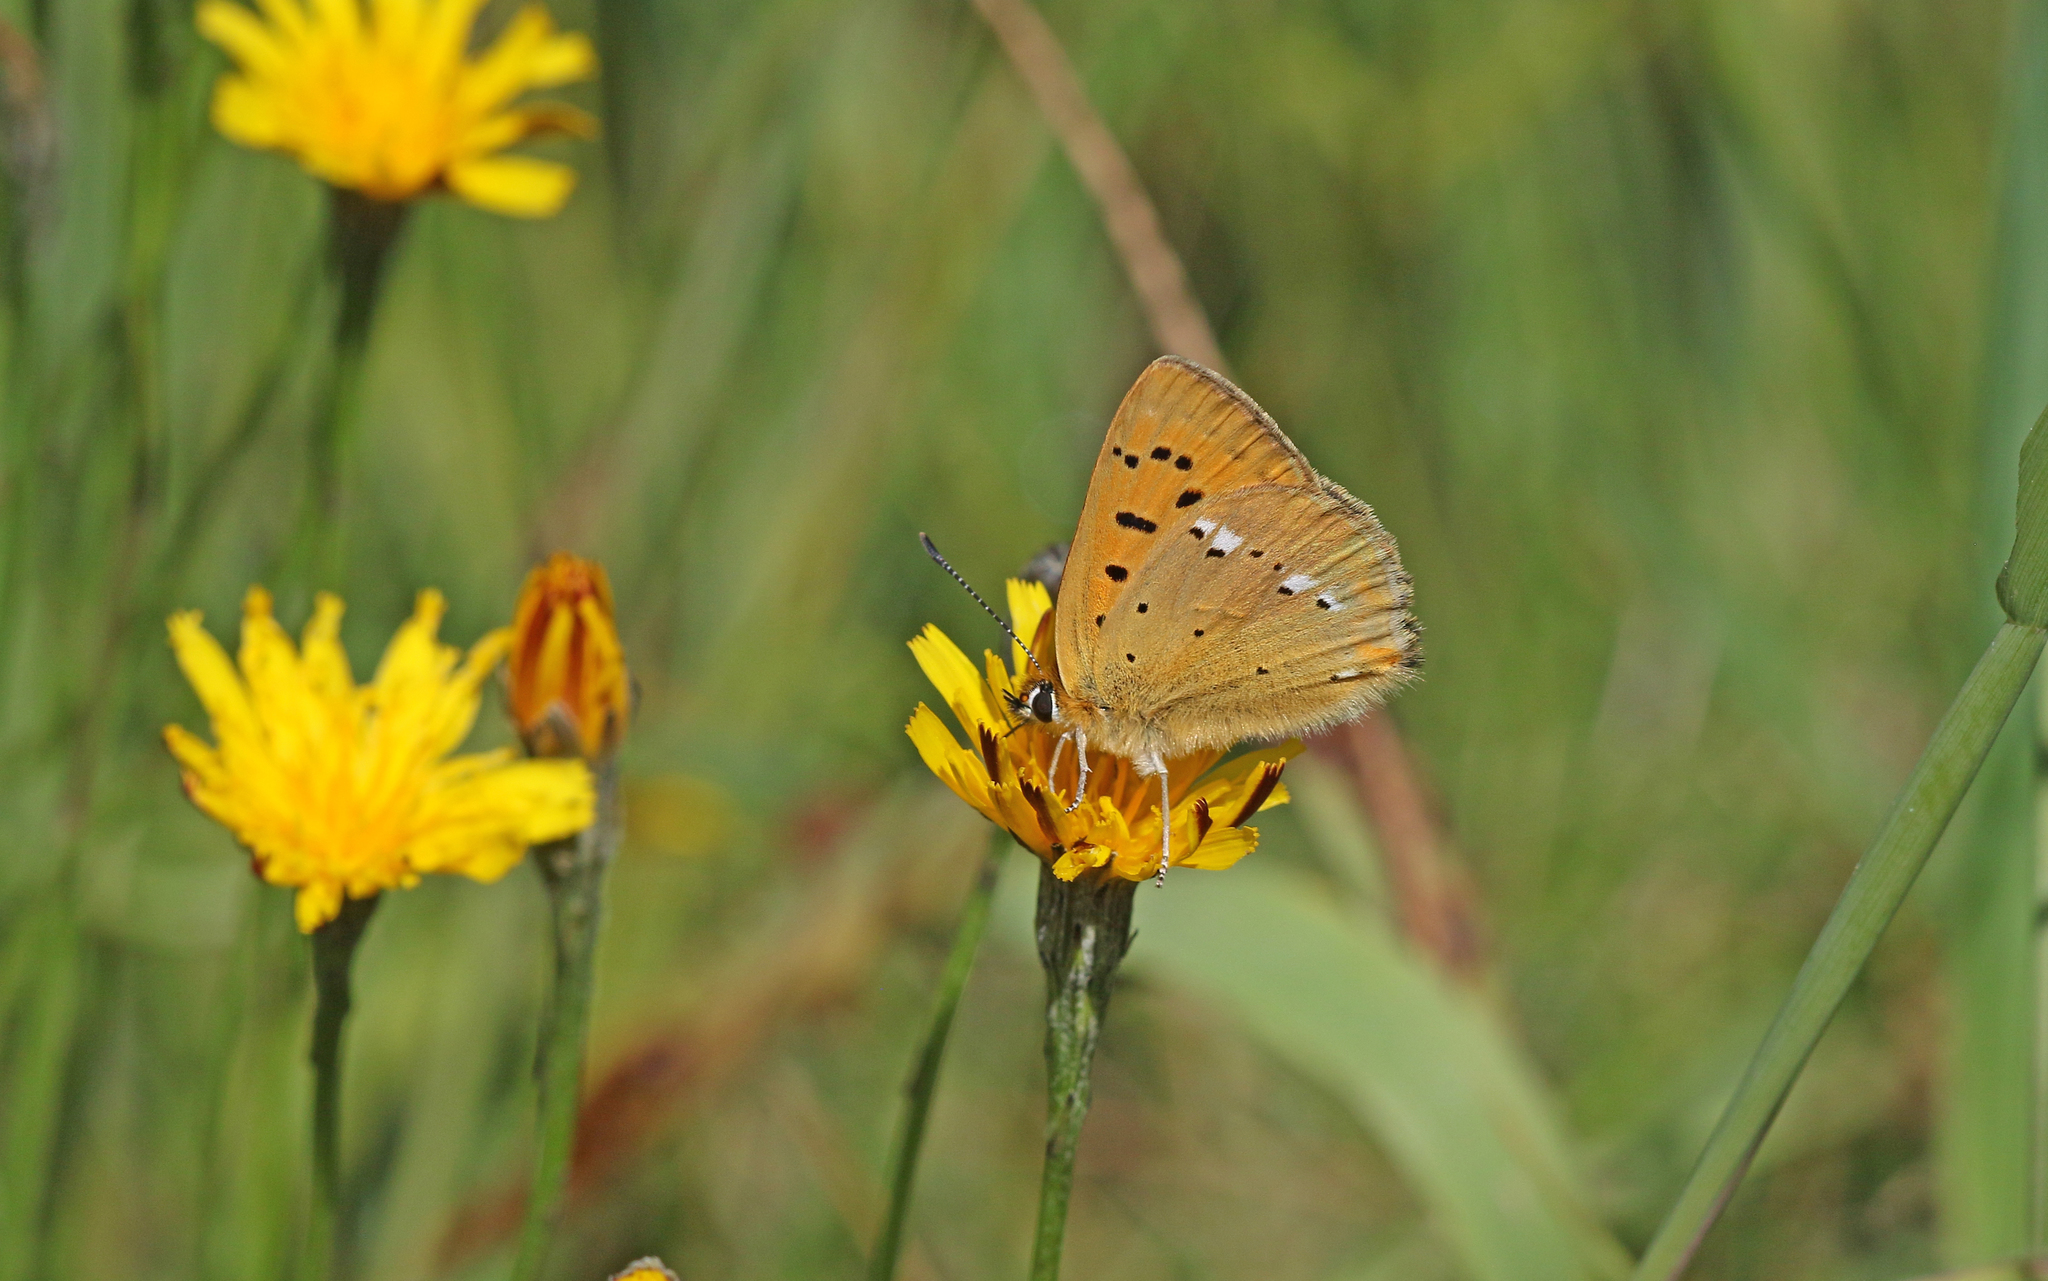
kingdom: Animalia
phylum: Arthropoda
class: Insecta
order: Lepidoptera
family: Lycaenidae
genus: Lycaena
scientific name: Lycaena virgaureae
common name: Scarce copper
